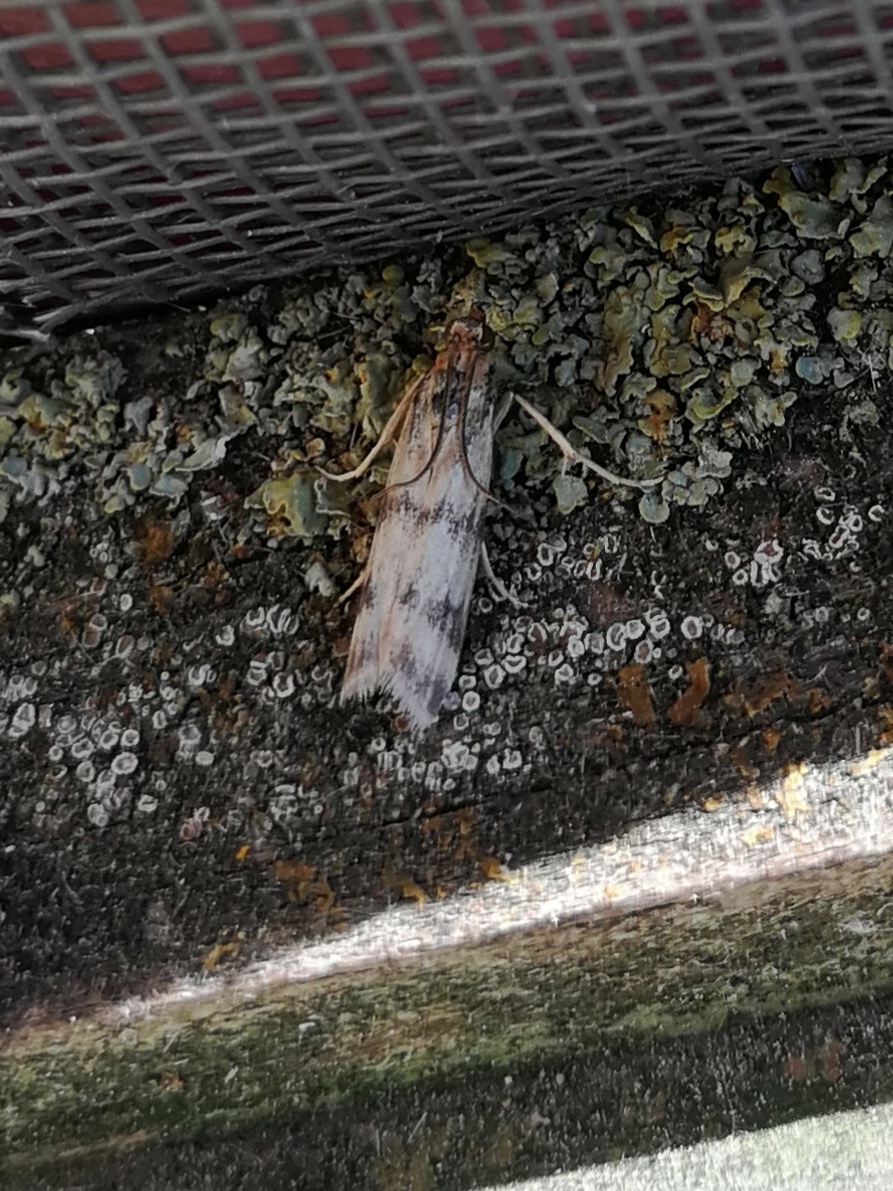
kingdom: Animalia
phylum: Arthropoda
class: Insecta
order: Lepidoptera
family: Pyralidae
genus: Homoeosoma
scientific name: Homoeosoma sinuella
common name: Twin-barred knot-horn
